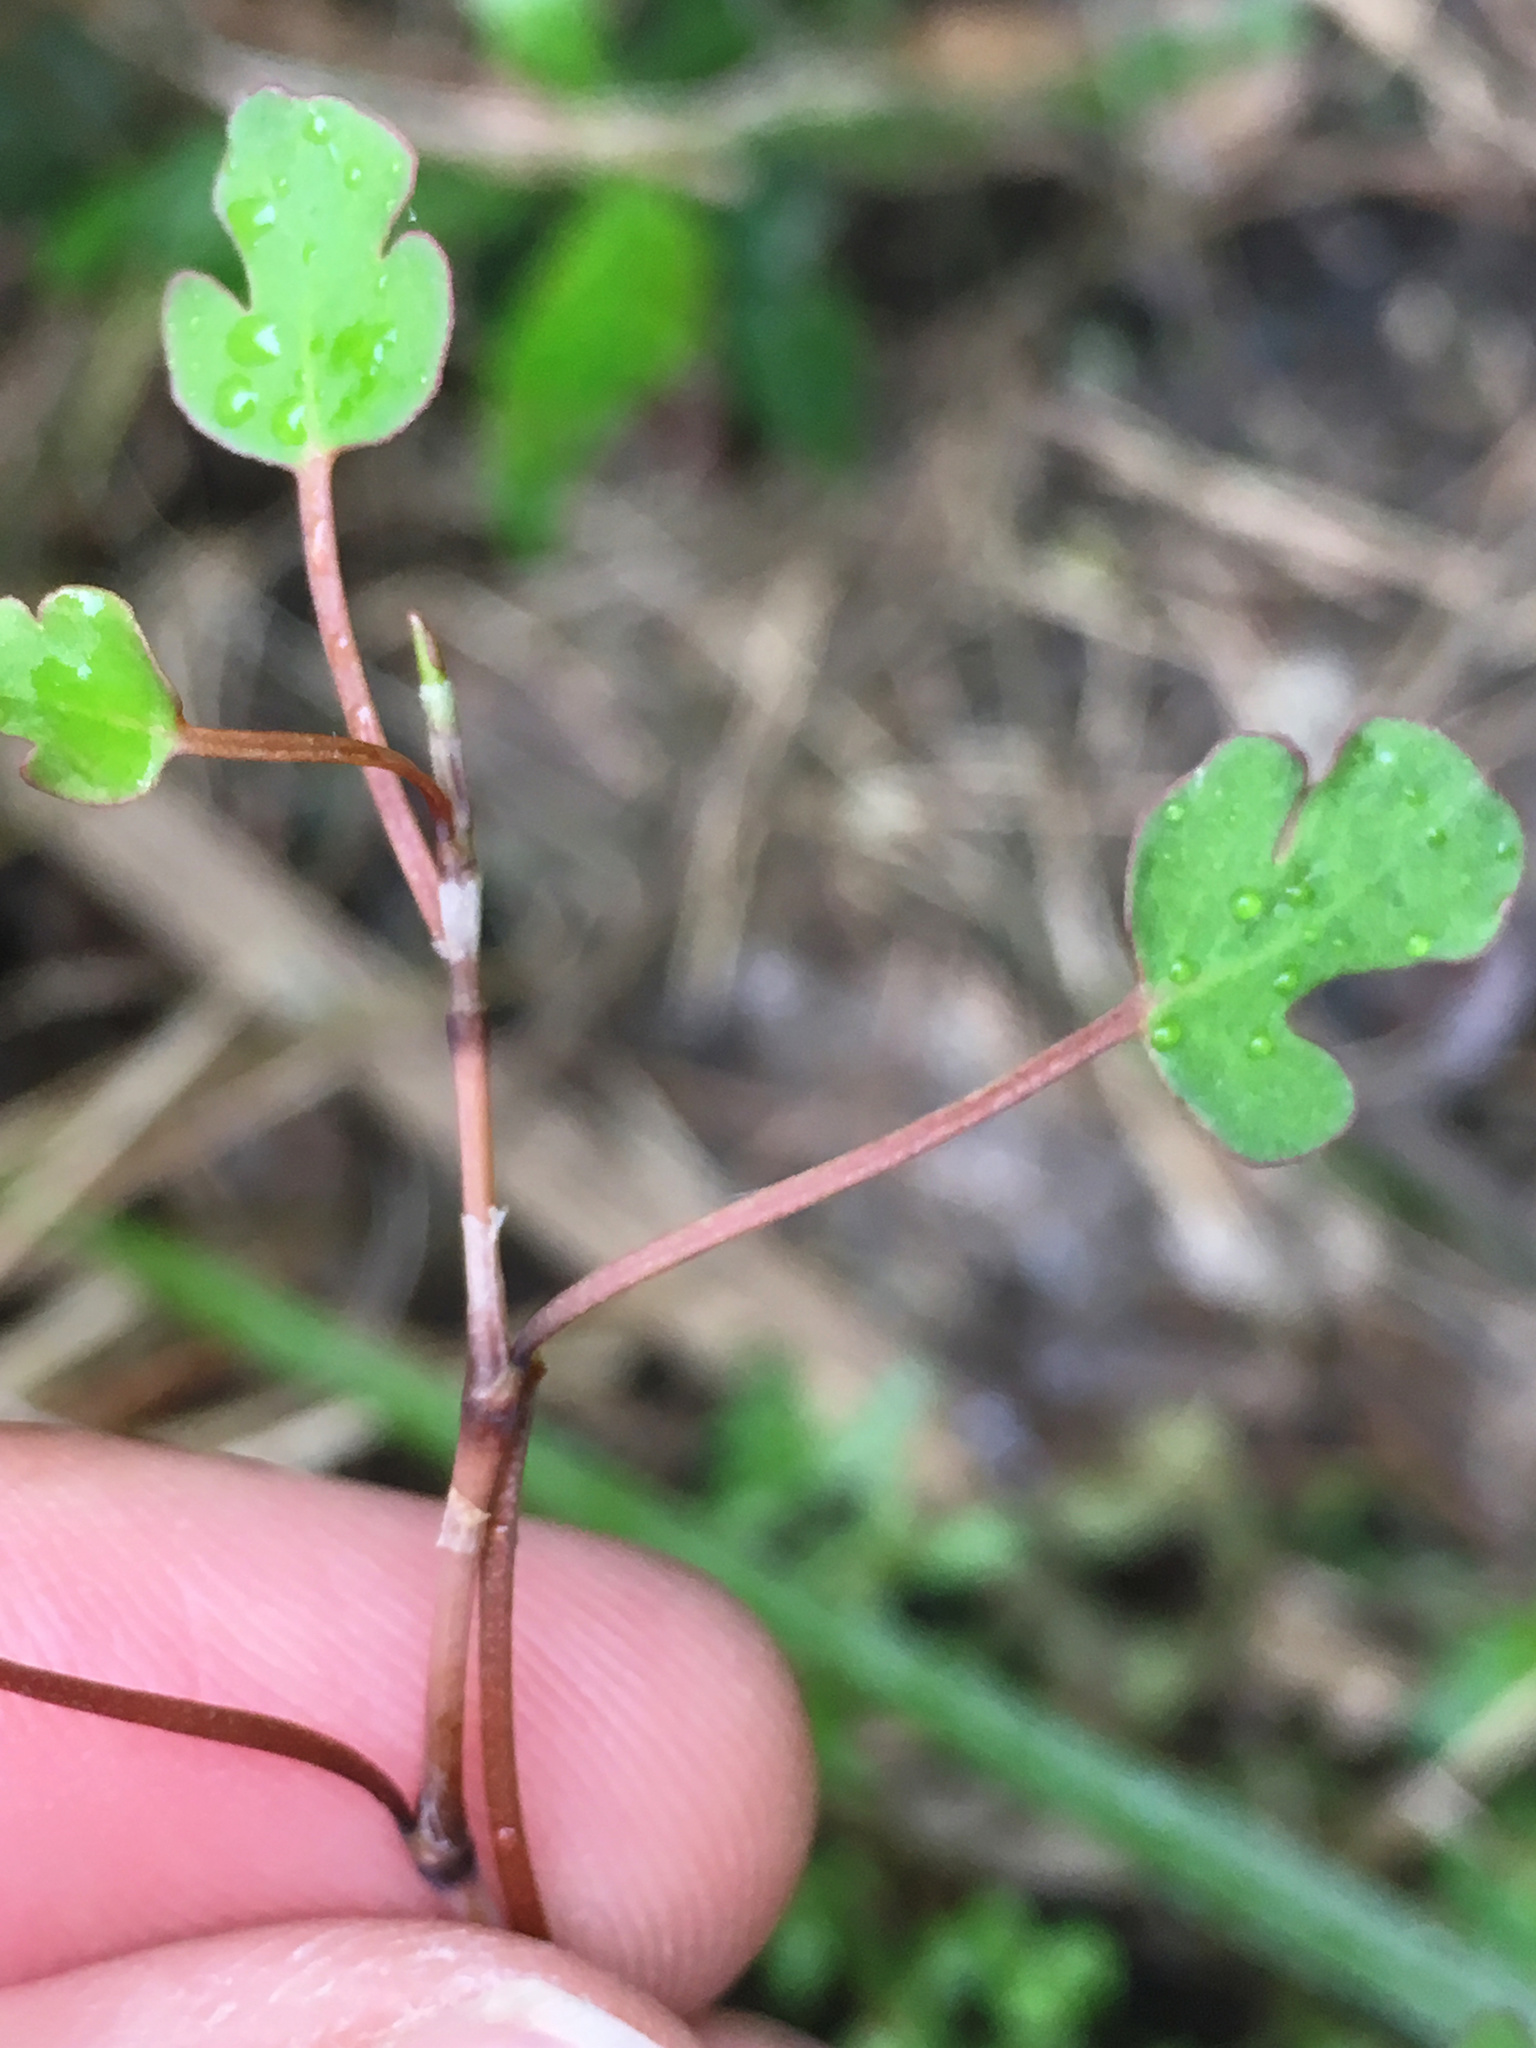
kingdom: Plantae
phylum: Tracheophyta
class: Magnoliopsida
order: Caryophyllales
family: Polygonaceae
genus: Muehlenbeckia
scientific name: Muehlenbeckia complexa
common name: Wireplant
